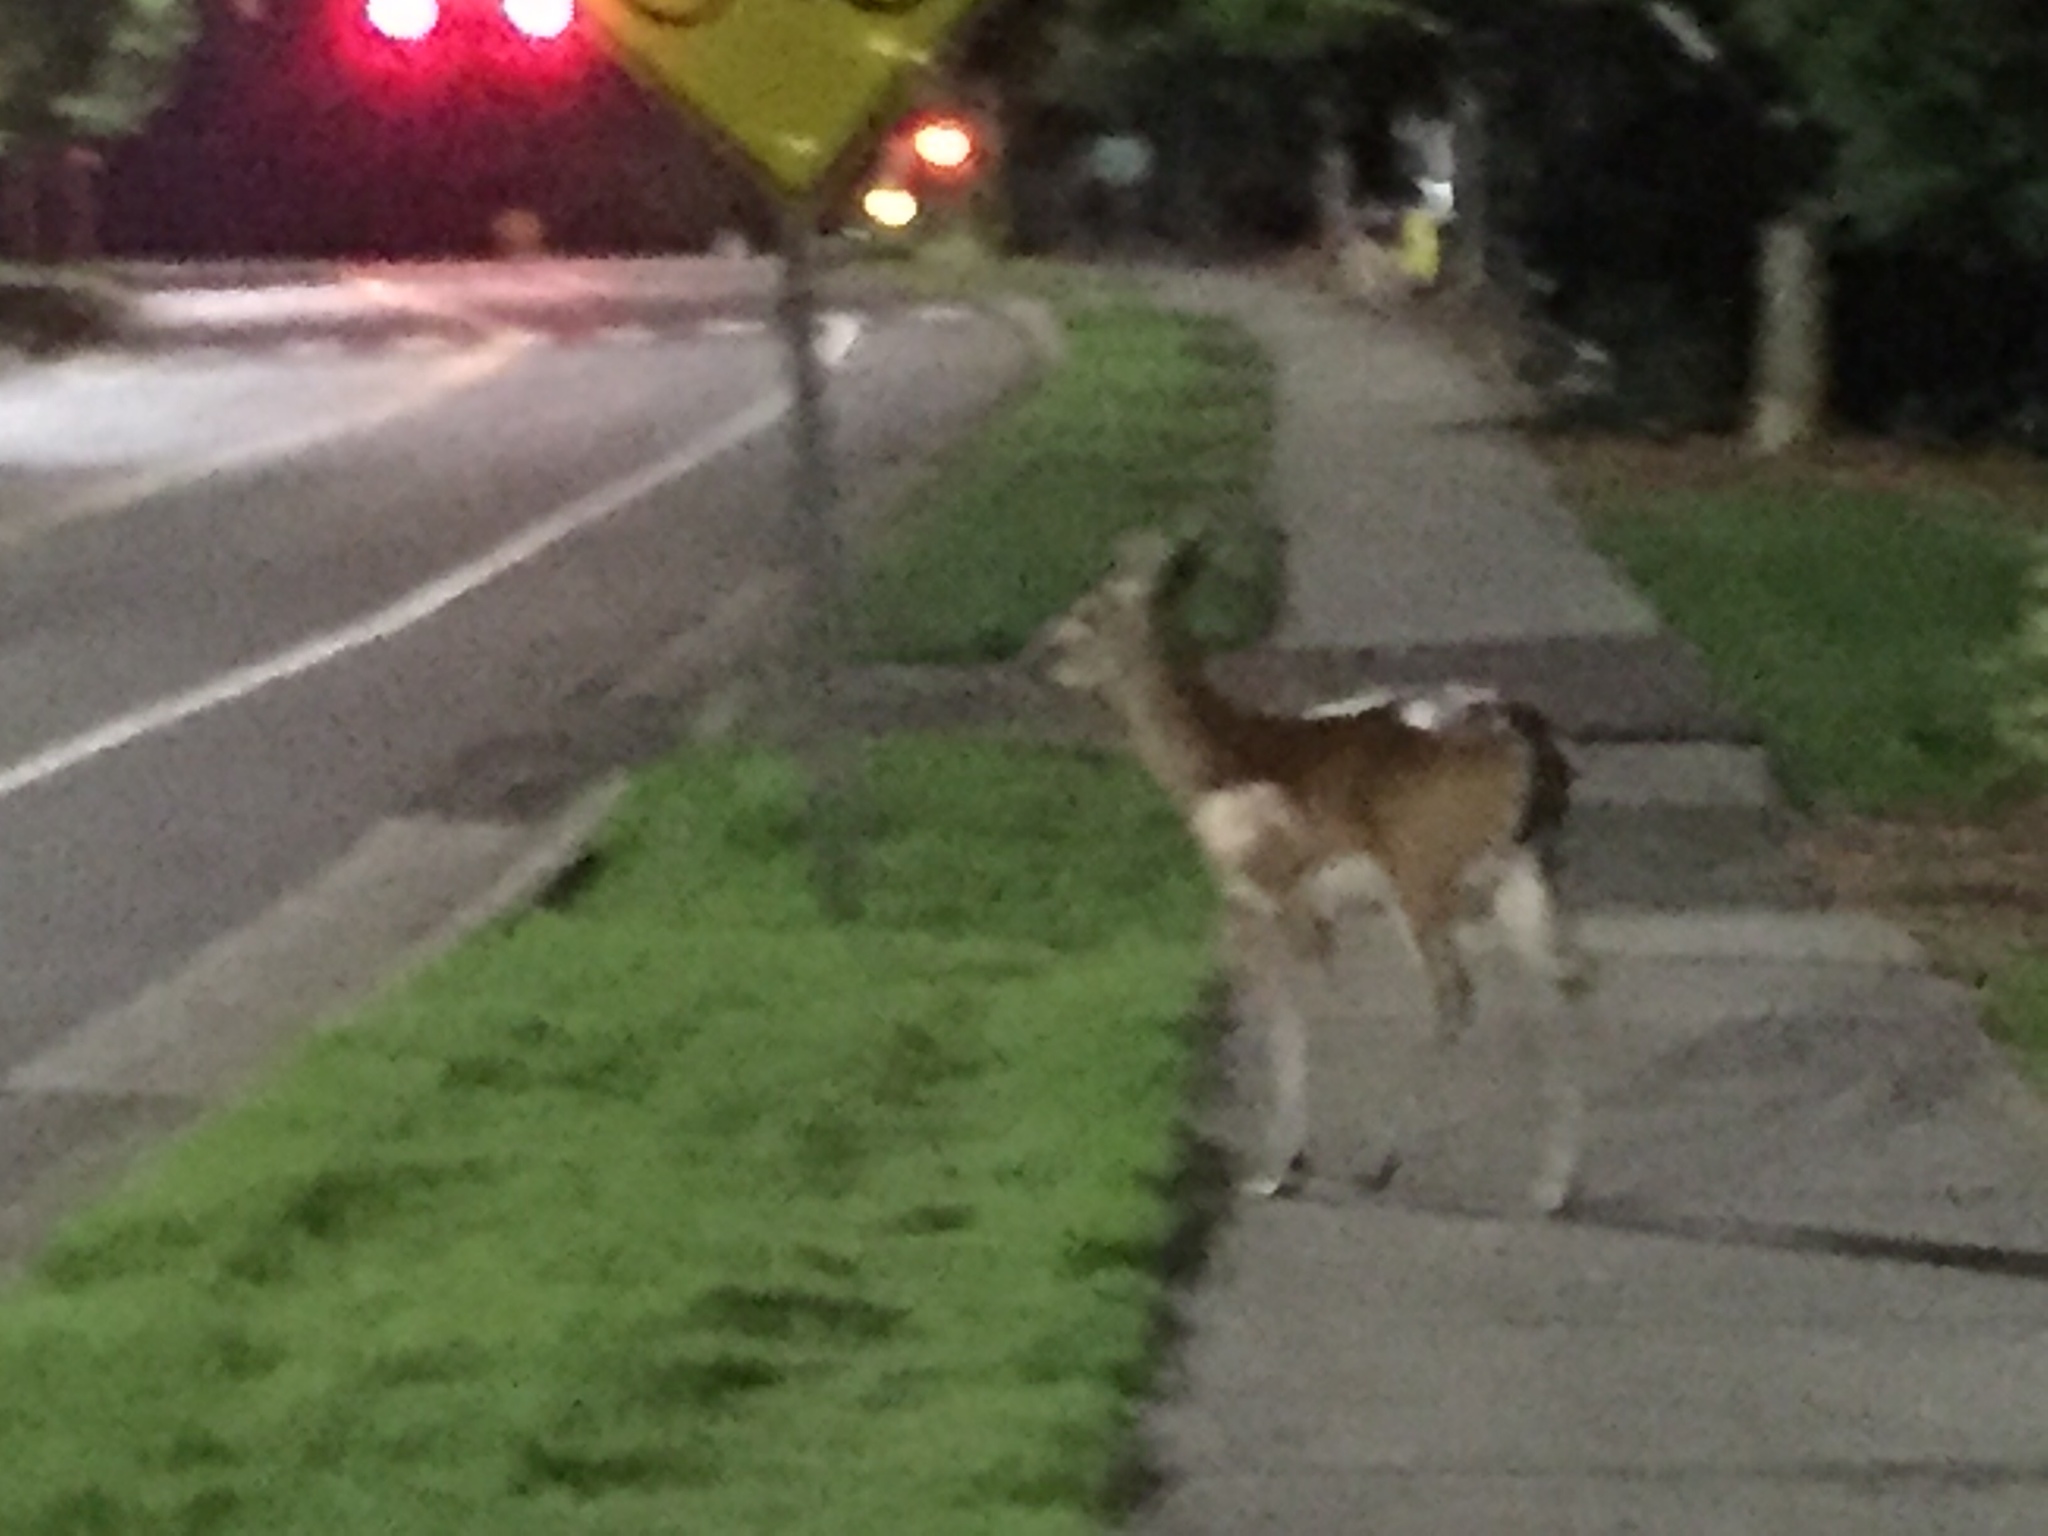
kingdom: Animalia
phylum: Chordata
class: Mammalia
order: Artiodactyla
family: Cervidae
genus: Odocoileus
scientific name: Odocoileus virginianus
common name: White-tailed deer
